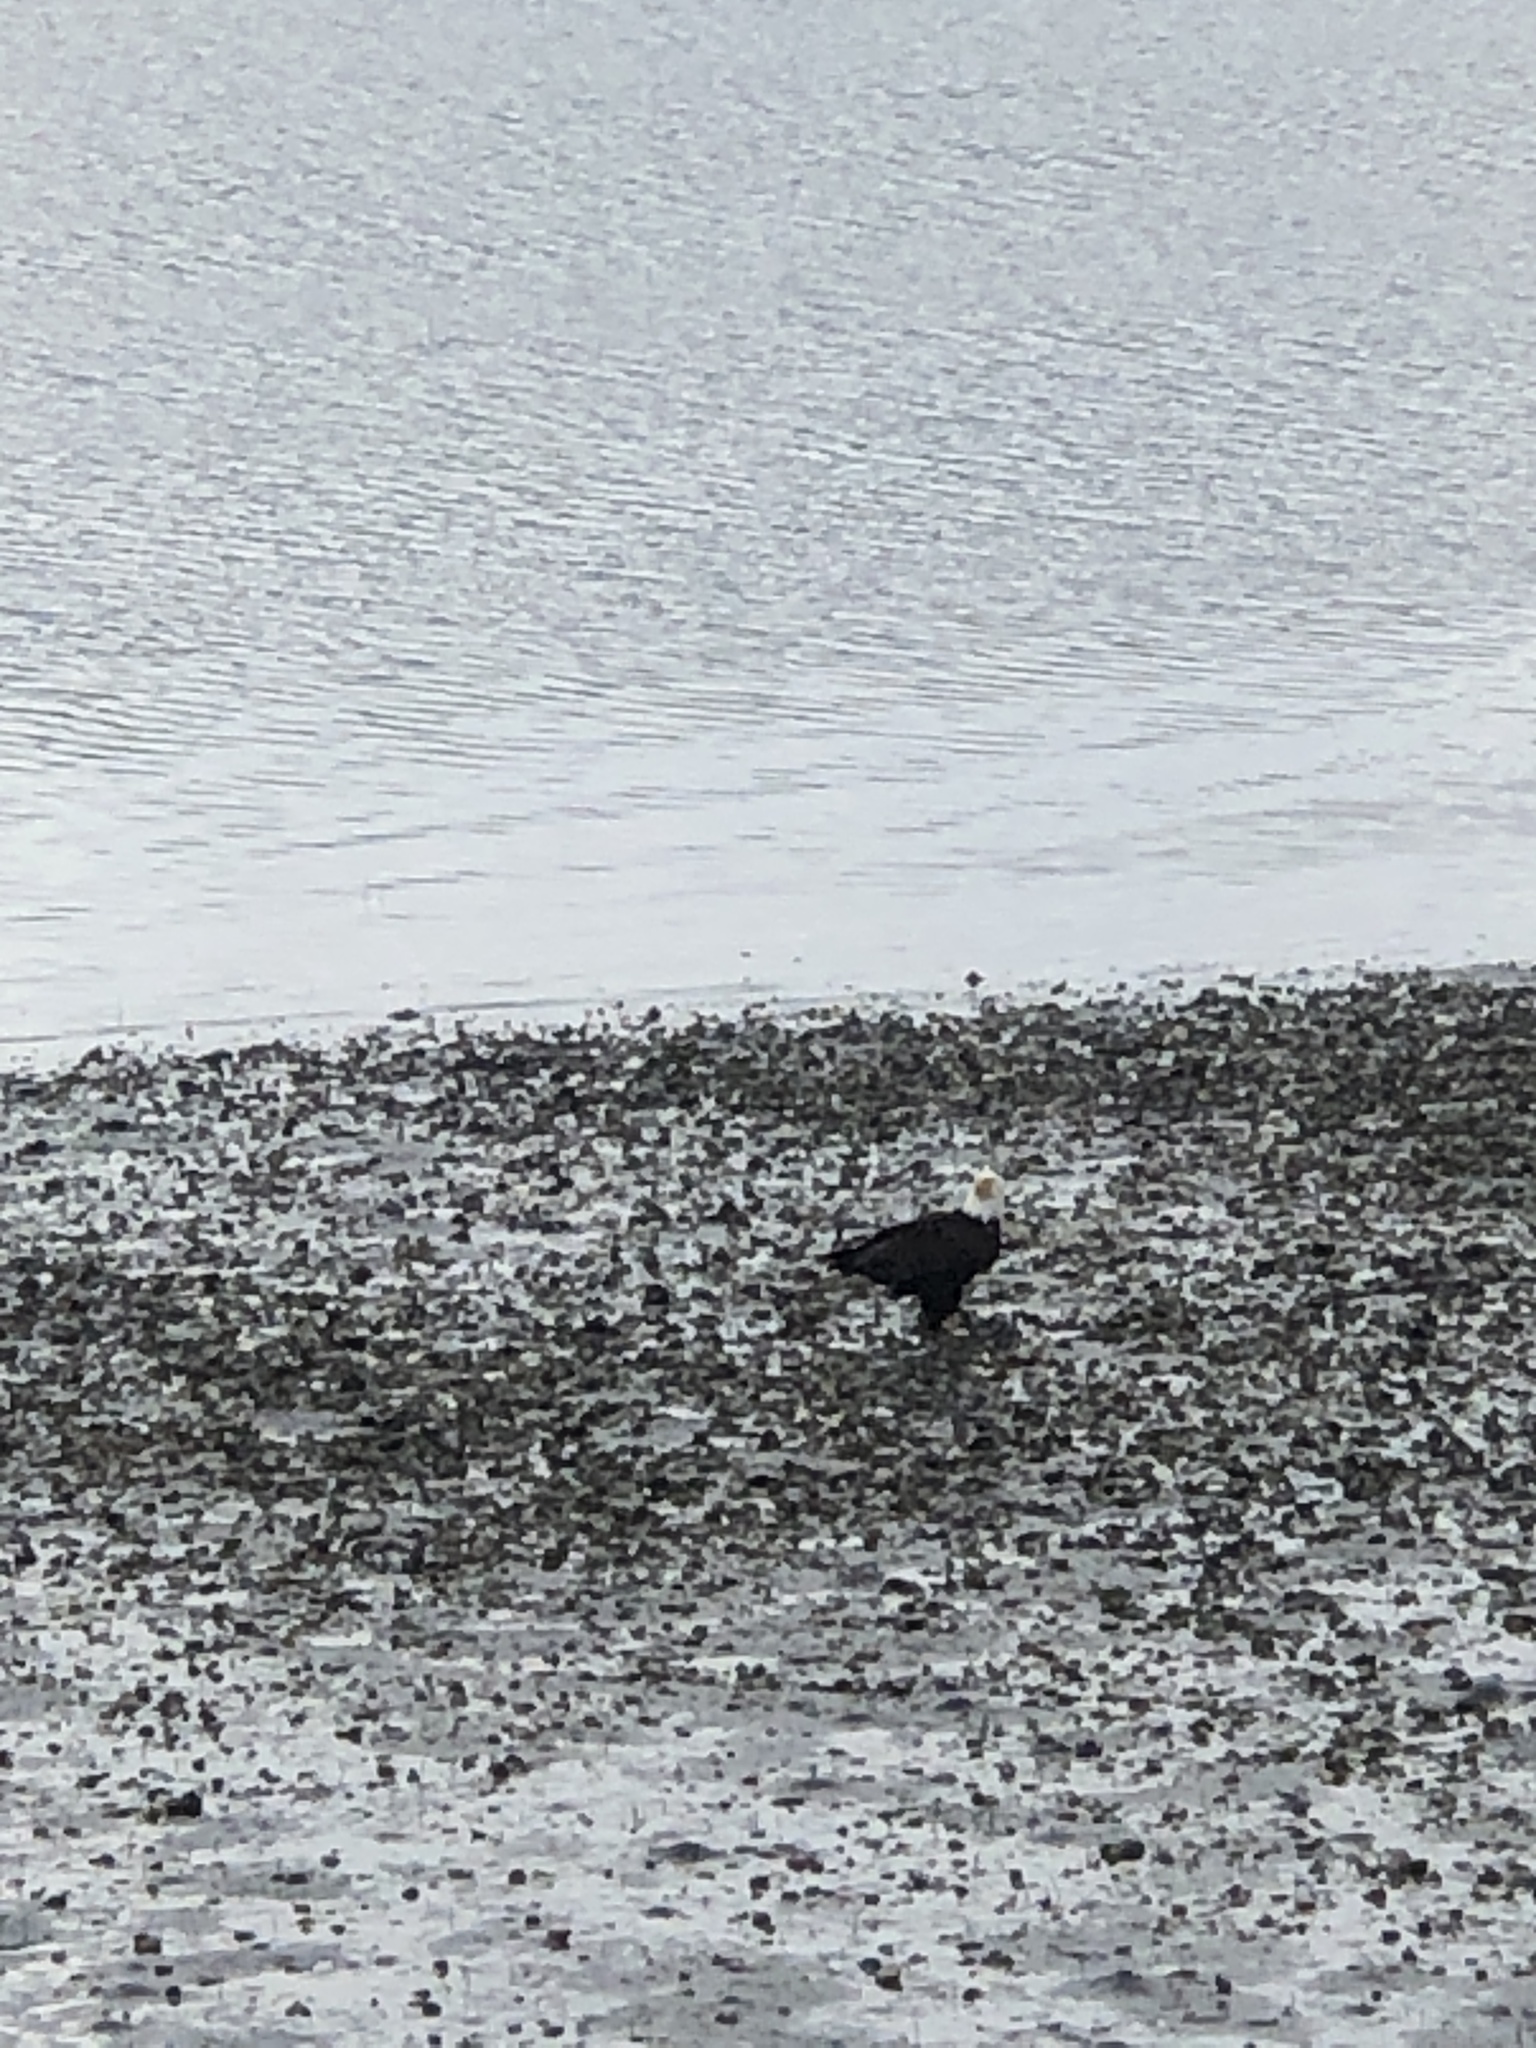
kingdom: Animalia
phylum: Chordata
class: Aves
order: Accipitriformes
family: Accipitridae
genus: Haliaeetus
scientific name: Haliaeetus leucocephalus
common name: Bald eagle
